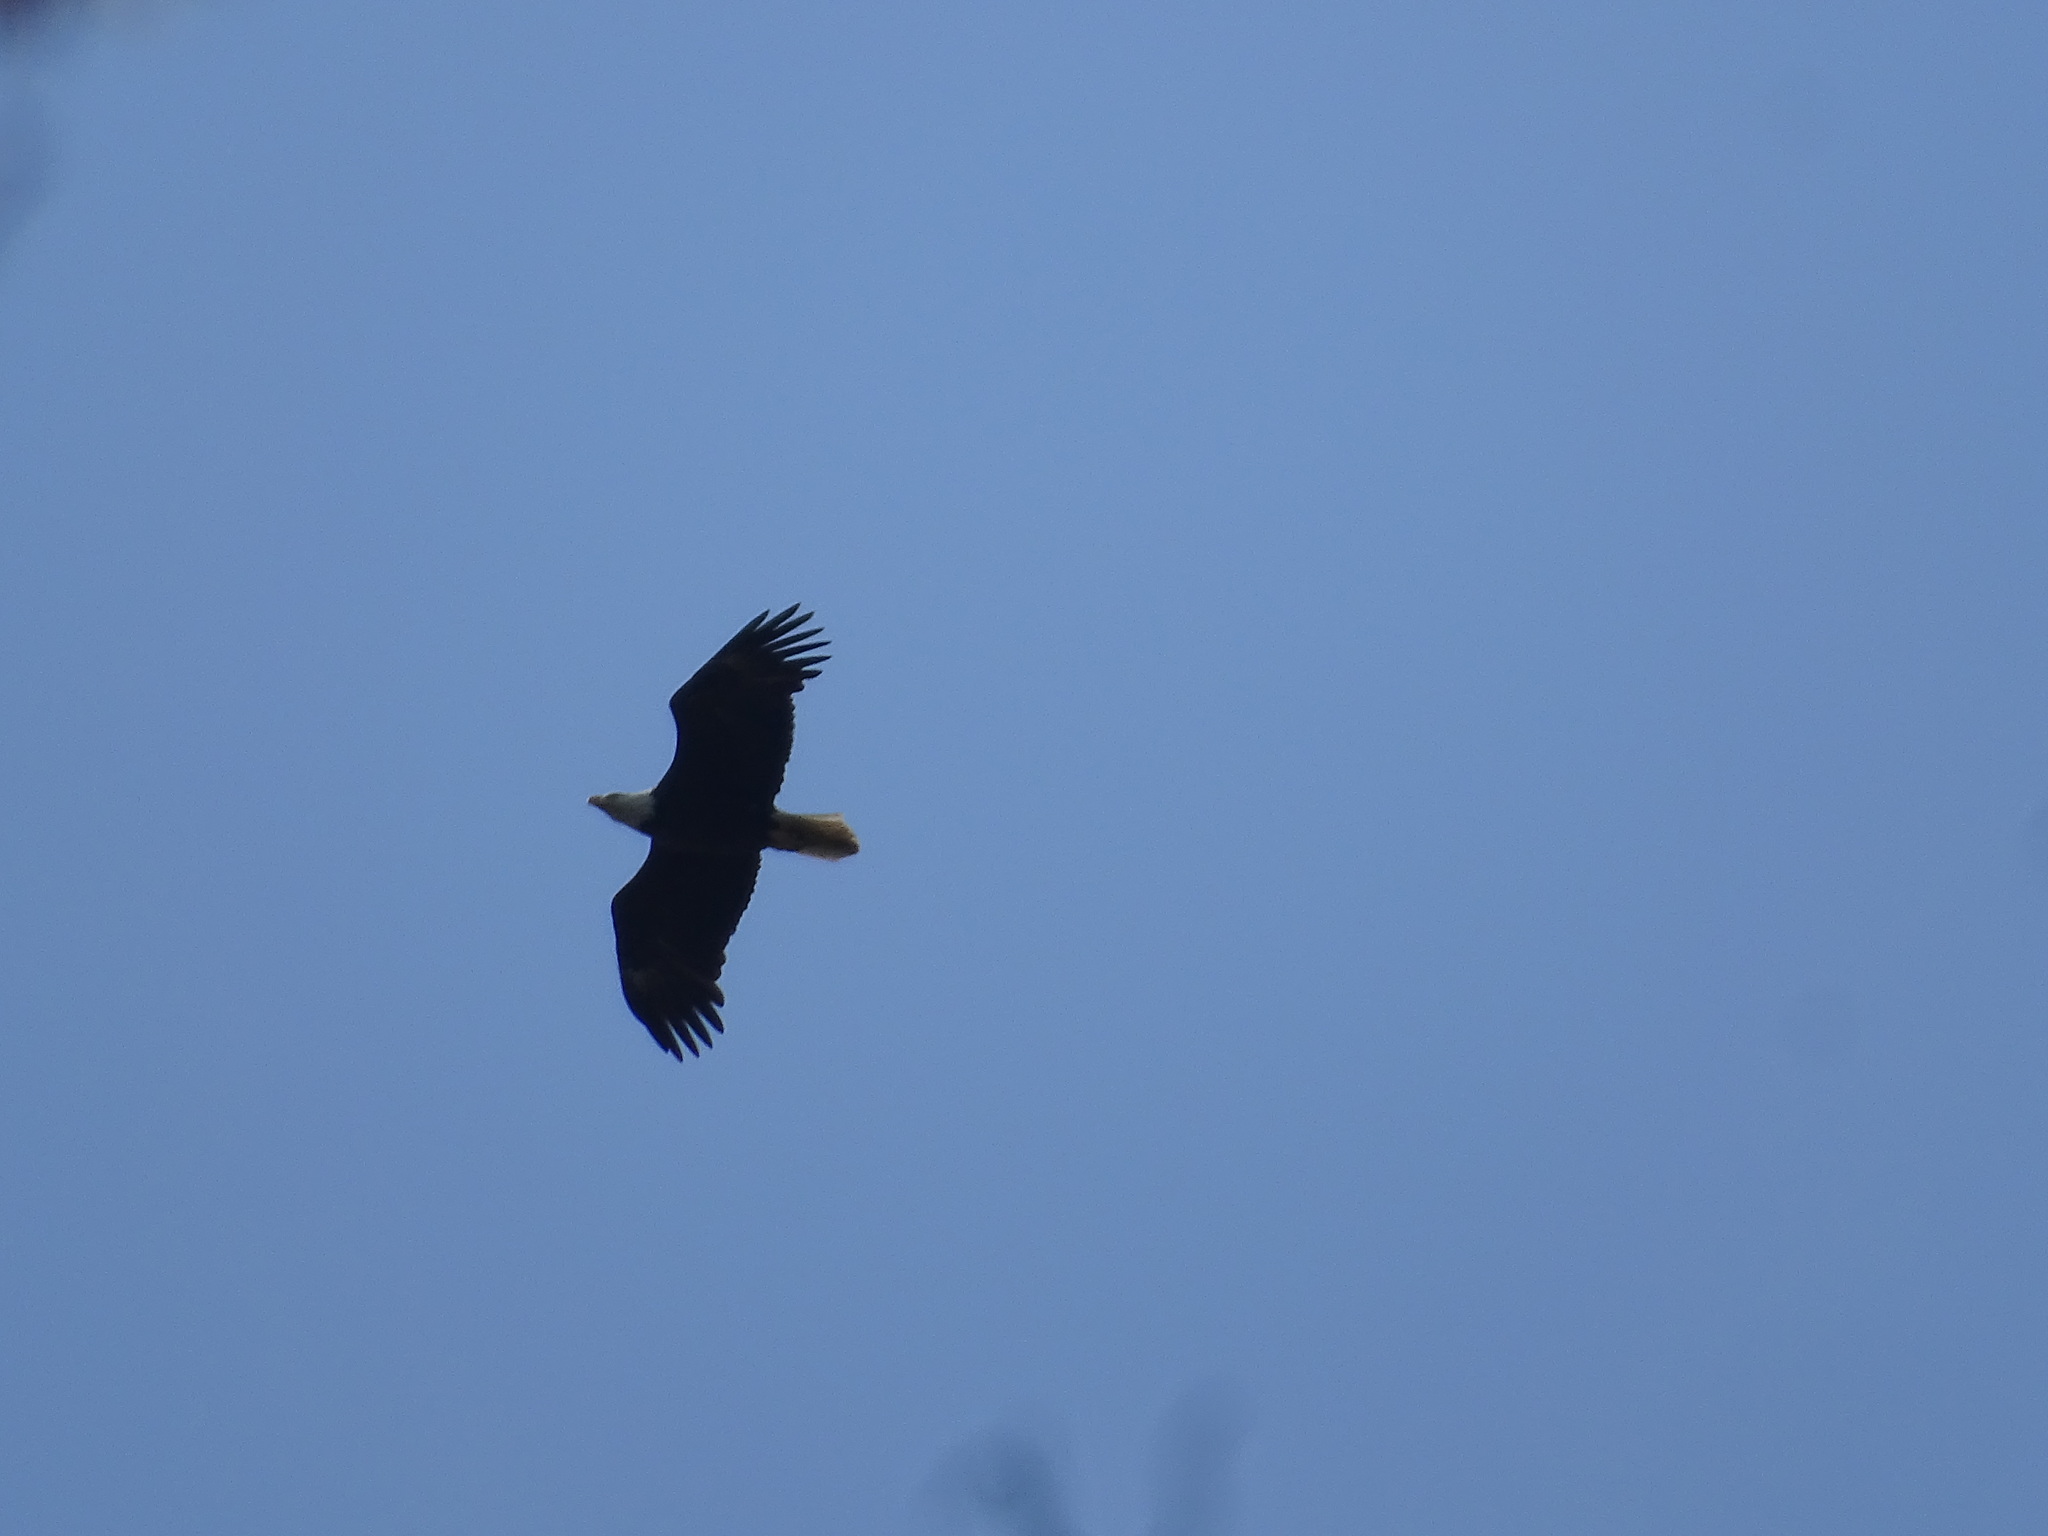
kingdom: Animalia
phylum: Chordata
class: Aves
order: Accipitriformes
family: Accipitridae
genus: Haliaeetus
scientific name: Haliaeetus leucocephalus
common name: Bald eagle
